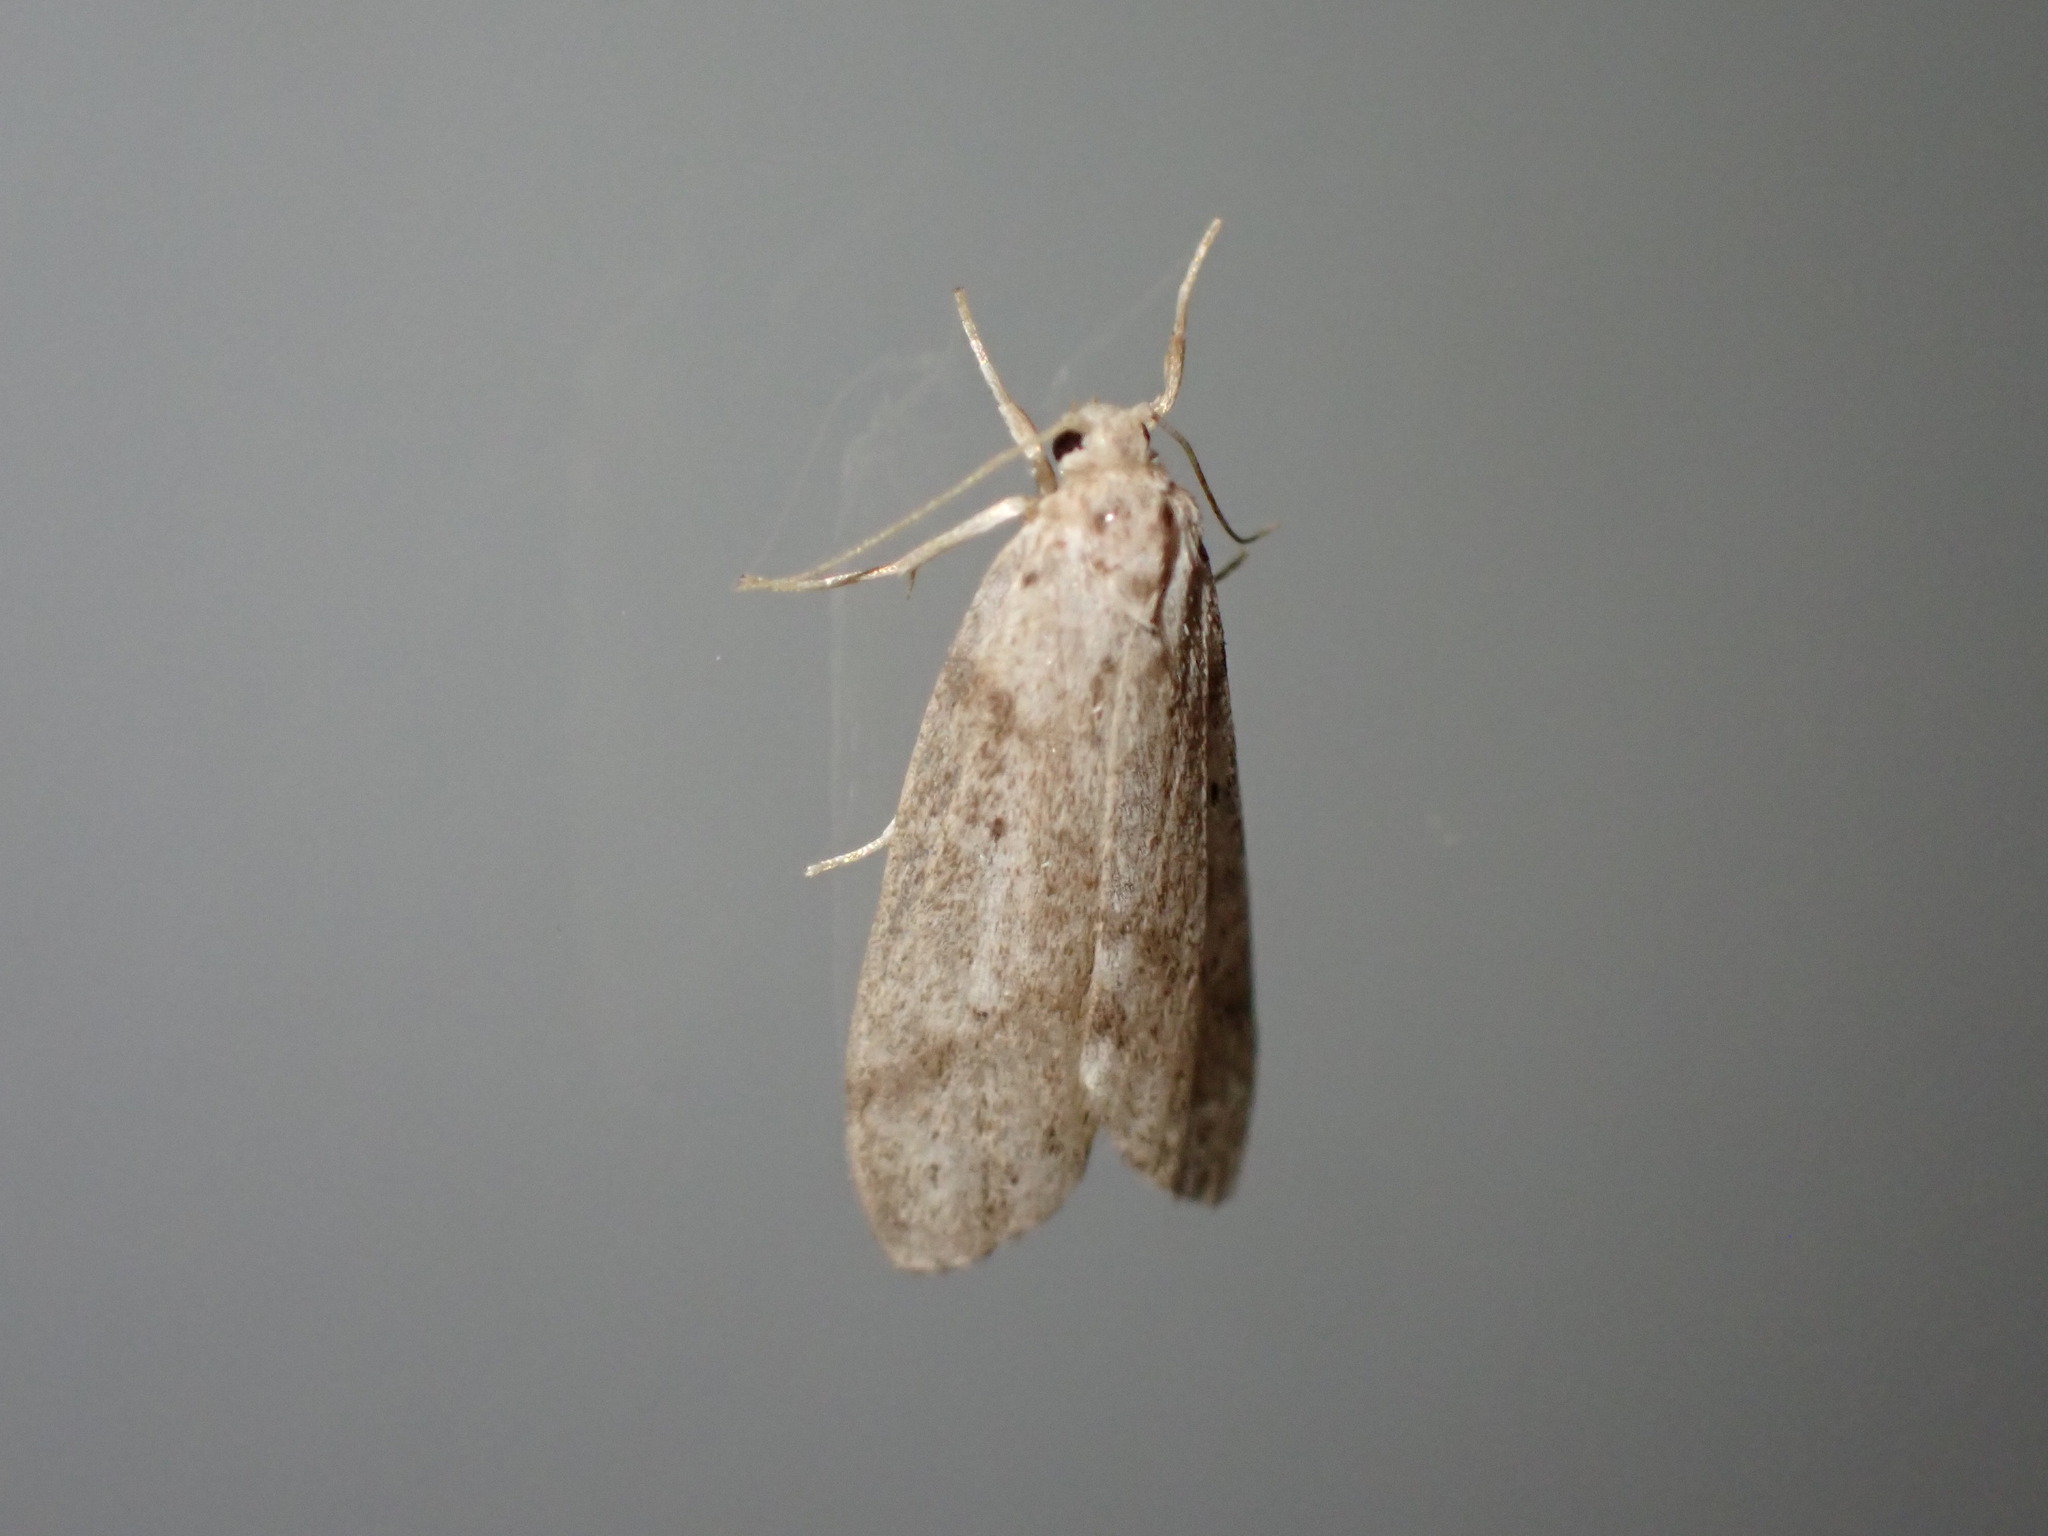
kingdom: Animalia
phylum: Arthropoda
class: Insecta
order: Lepidoptera
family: Erebidae
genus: Galtara
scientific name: Galtara rostrata
